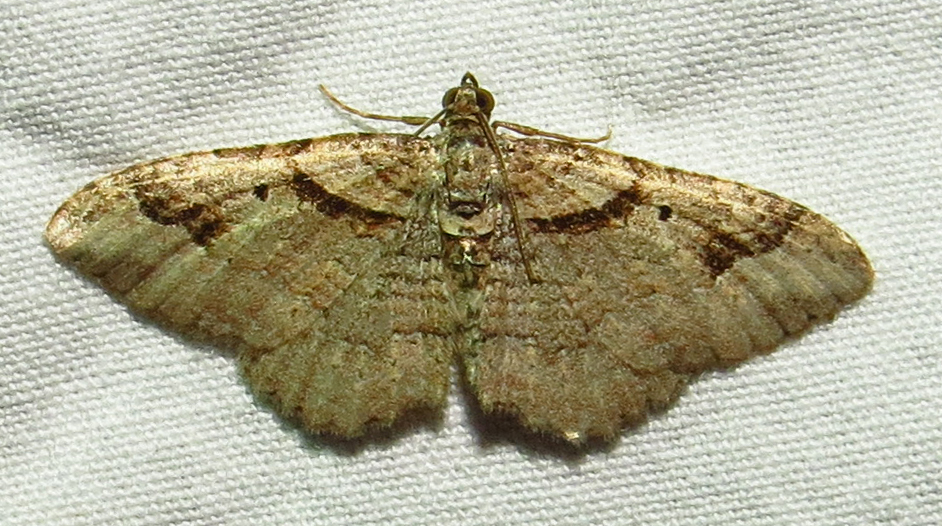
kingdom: Animalia
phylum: Arthropoda
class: Insecta
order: Lepidoptera
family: Geometridae
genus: Costaconvexa
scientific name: Costaconvexa centrostrigaria
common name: Bent-line carpet
